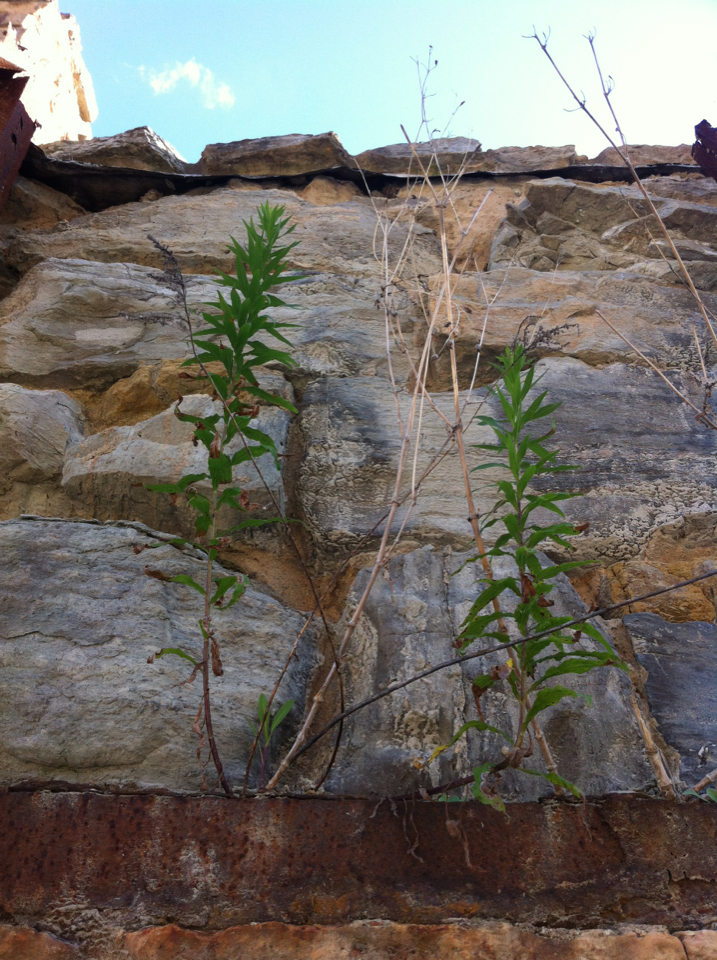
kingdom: Plantae
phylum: Tracheophyta
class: Magnoliopsida
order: Asterales
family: Asteraceae
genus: Solidago
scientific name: Solidago altissima
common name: Late goldenrod
